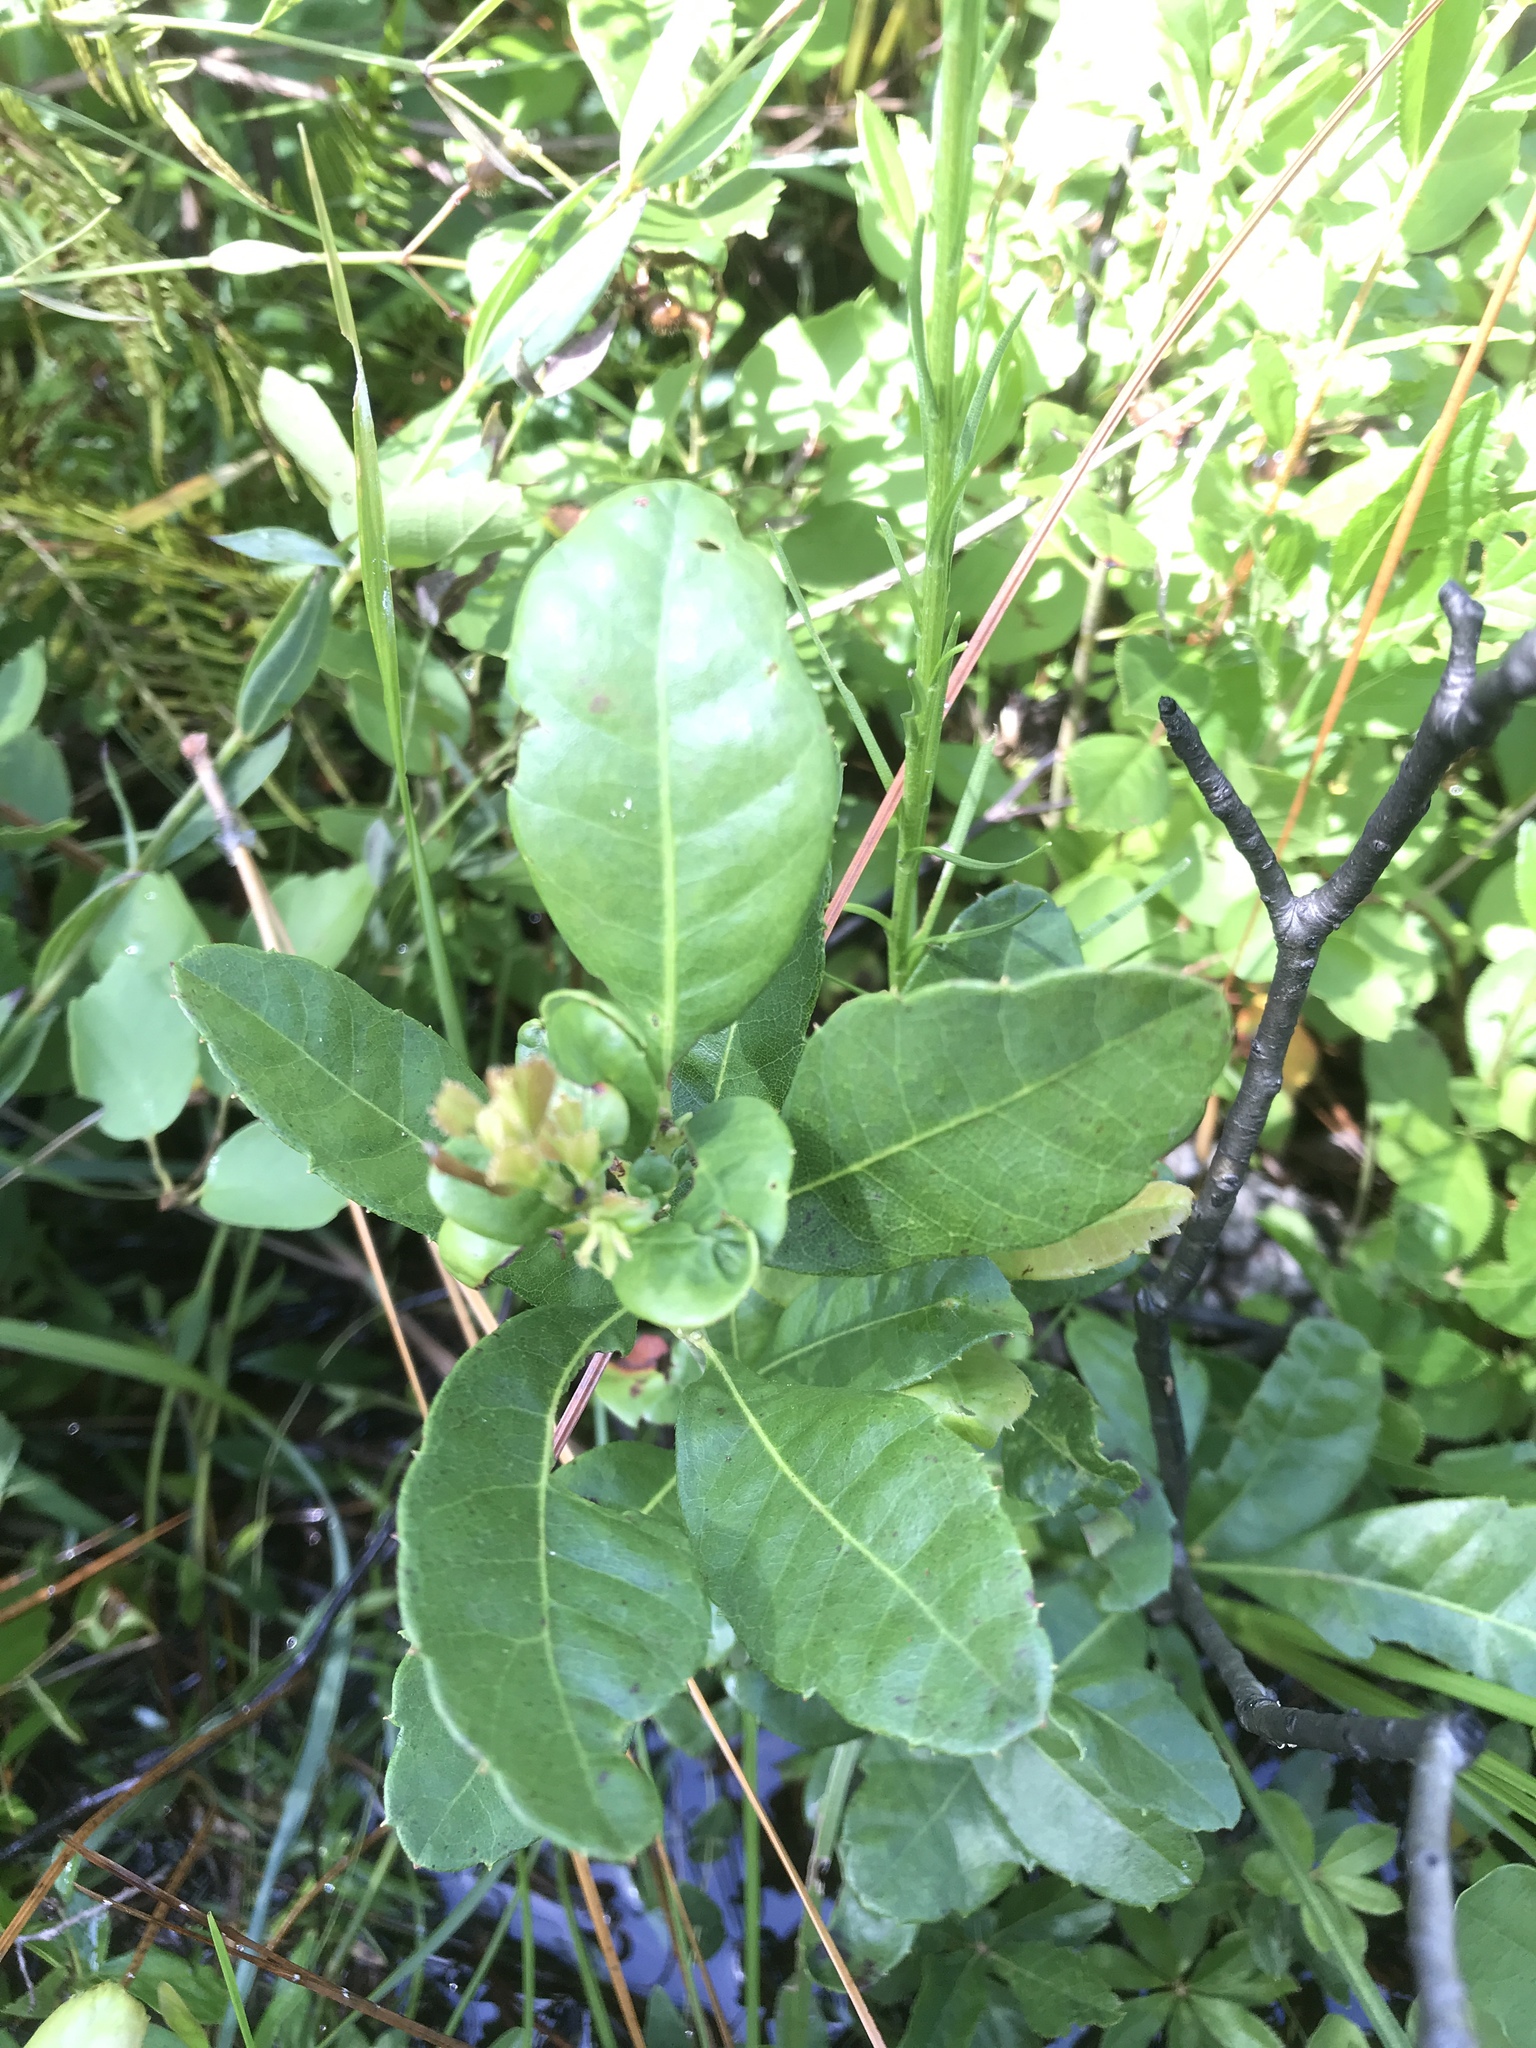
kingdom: Plantae
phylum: Tracheophyta
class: Magnoliopsida
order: Fagales
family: Myricaceae
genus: Morella
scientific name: Morella caroliniensis
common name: Evergreen bayberry
